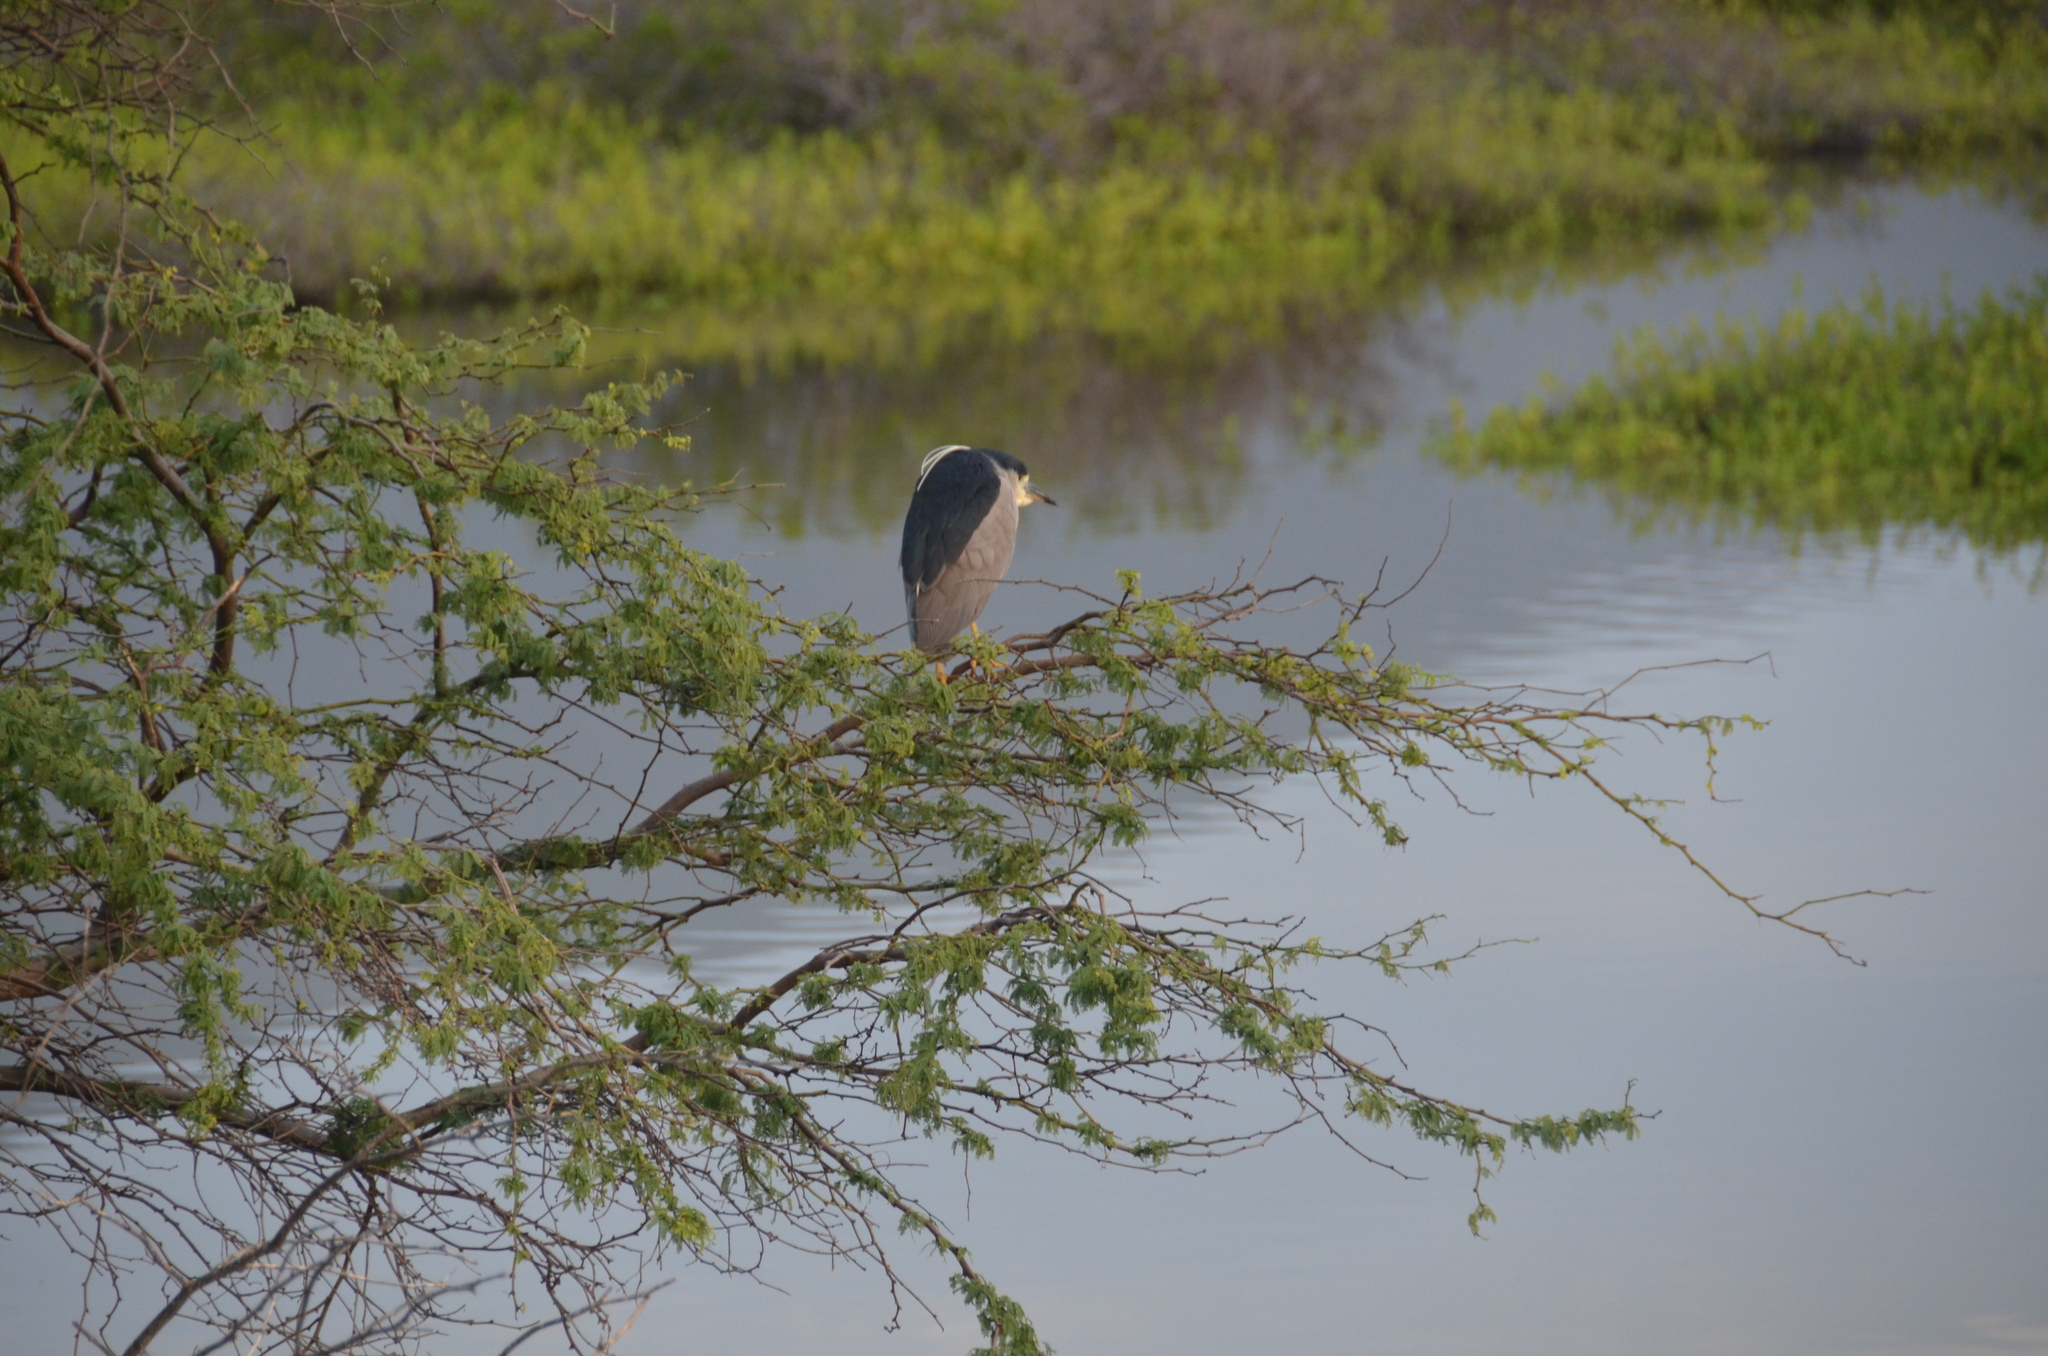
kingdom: Animalia
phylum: Chordata
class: Aves
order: Pelecaniformes
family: Ardeidae
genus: Nycticorax
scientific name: Nycticorax nycticorax
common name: Black-crowned night heron
